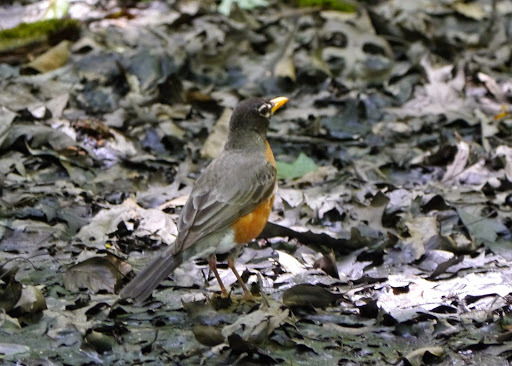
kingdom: Animalia
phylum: Chordata
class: Aves
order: Passeriformes
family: Turdidae
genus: Turdus
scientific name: Turdus migratorius
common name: American robin
